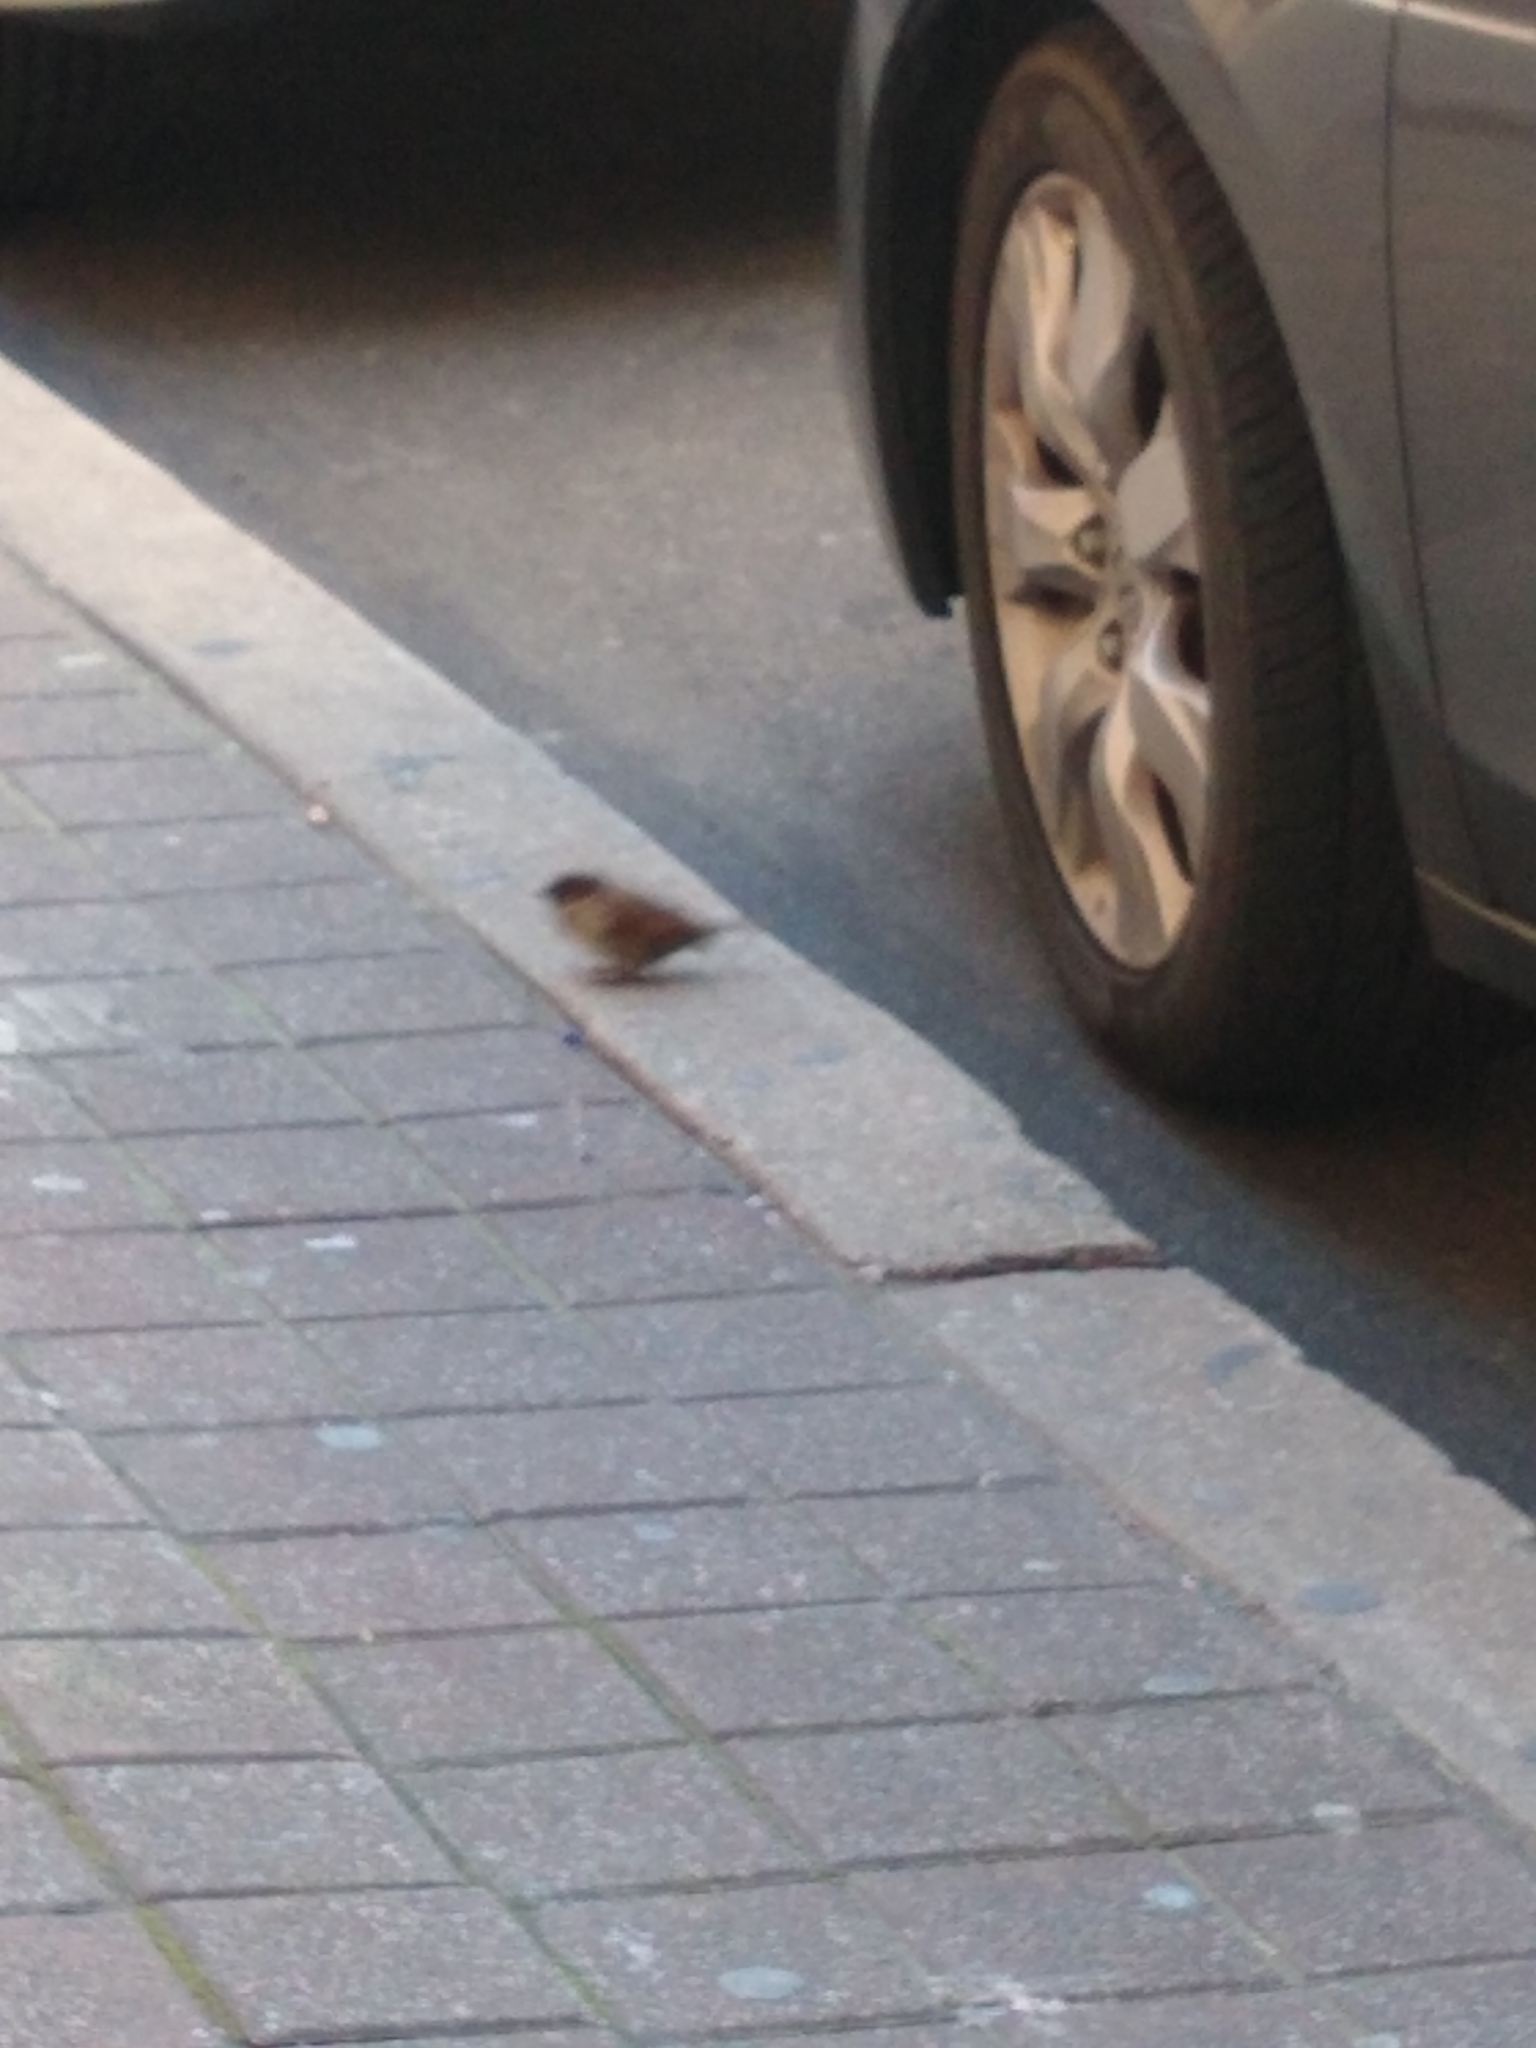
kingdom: Animalia
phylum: Chordata
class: Aves
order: Passeriformes
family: Passeridae
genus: Passer
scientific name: Passer domesticus
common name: House sparrow
